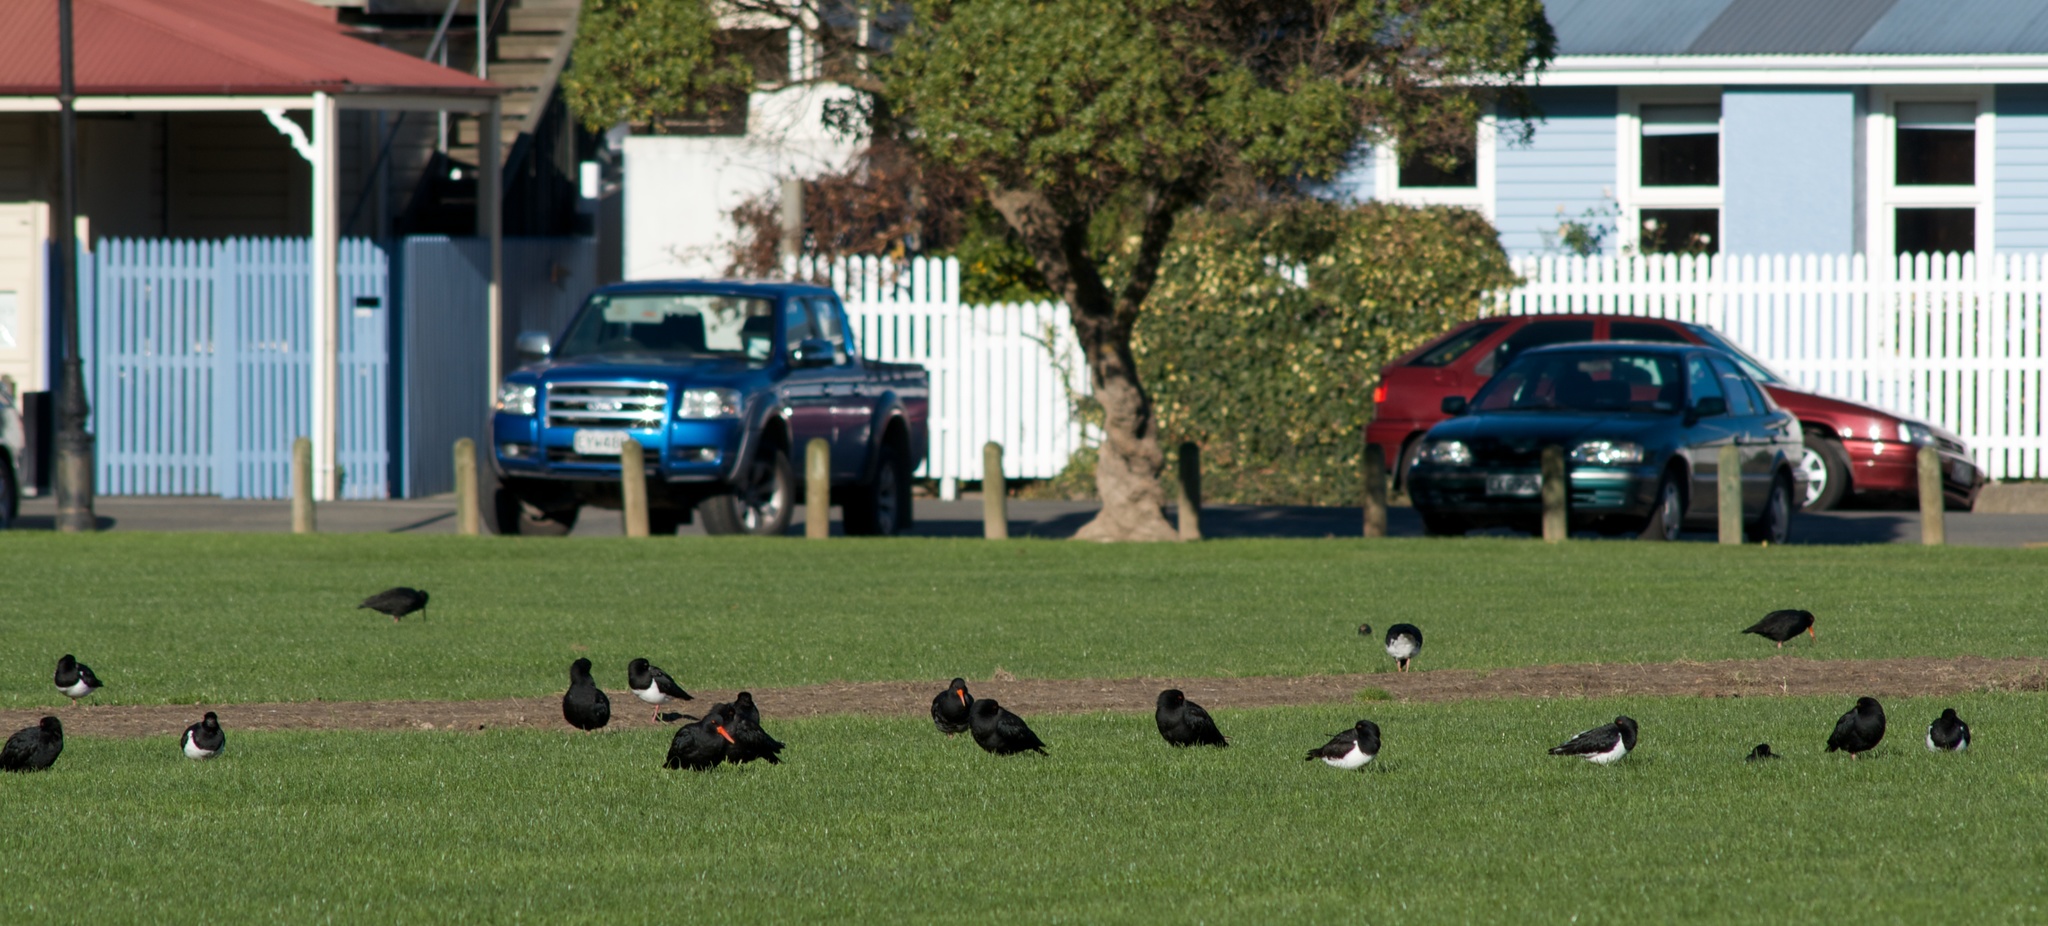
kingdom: Animalia
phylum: Chordata
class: Aves
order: Charadriiformes
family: Haematopodidae
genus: Haematopus
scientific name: Haematopus unicolor
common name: Variable oystercatcher
